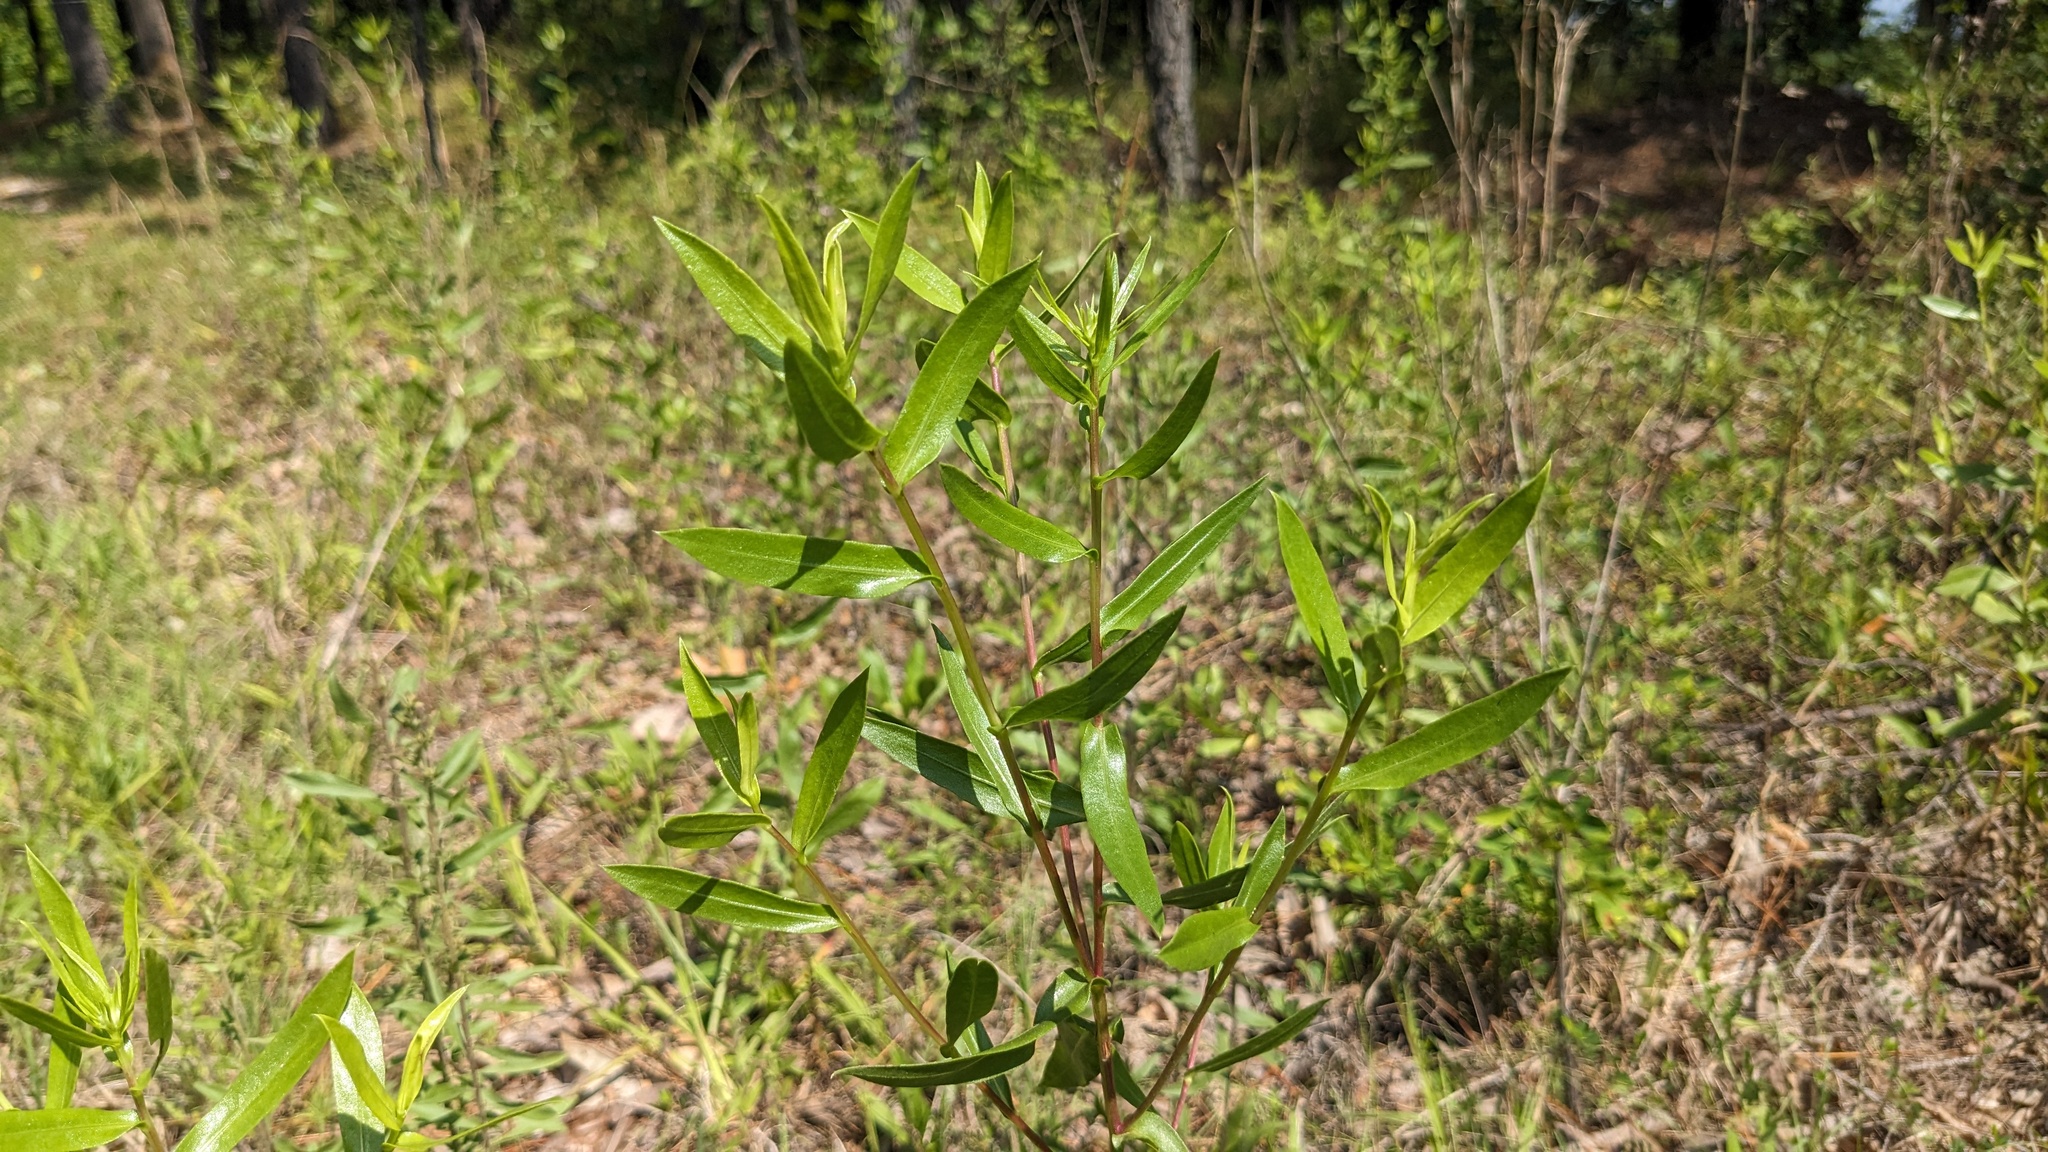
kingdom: Plantae
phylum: Tracheophyta
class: Magnoliopsida
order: Asterales
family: Asteraceae
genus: Grindelia
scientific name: Grindelia lanceolata
